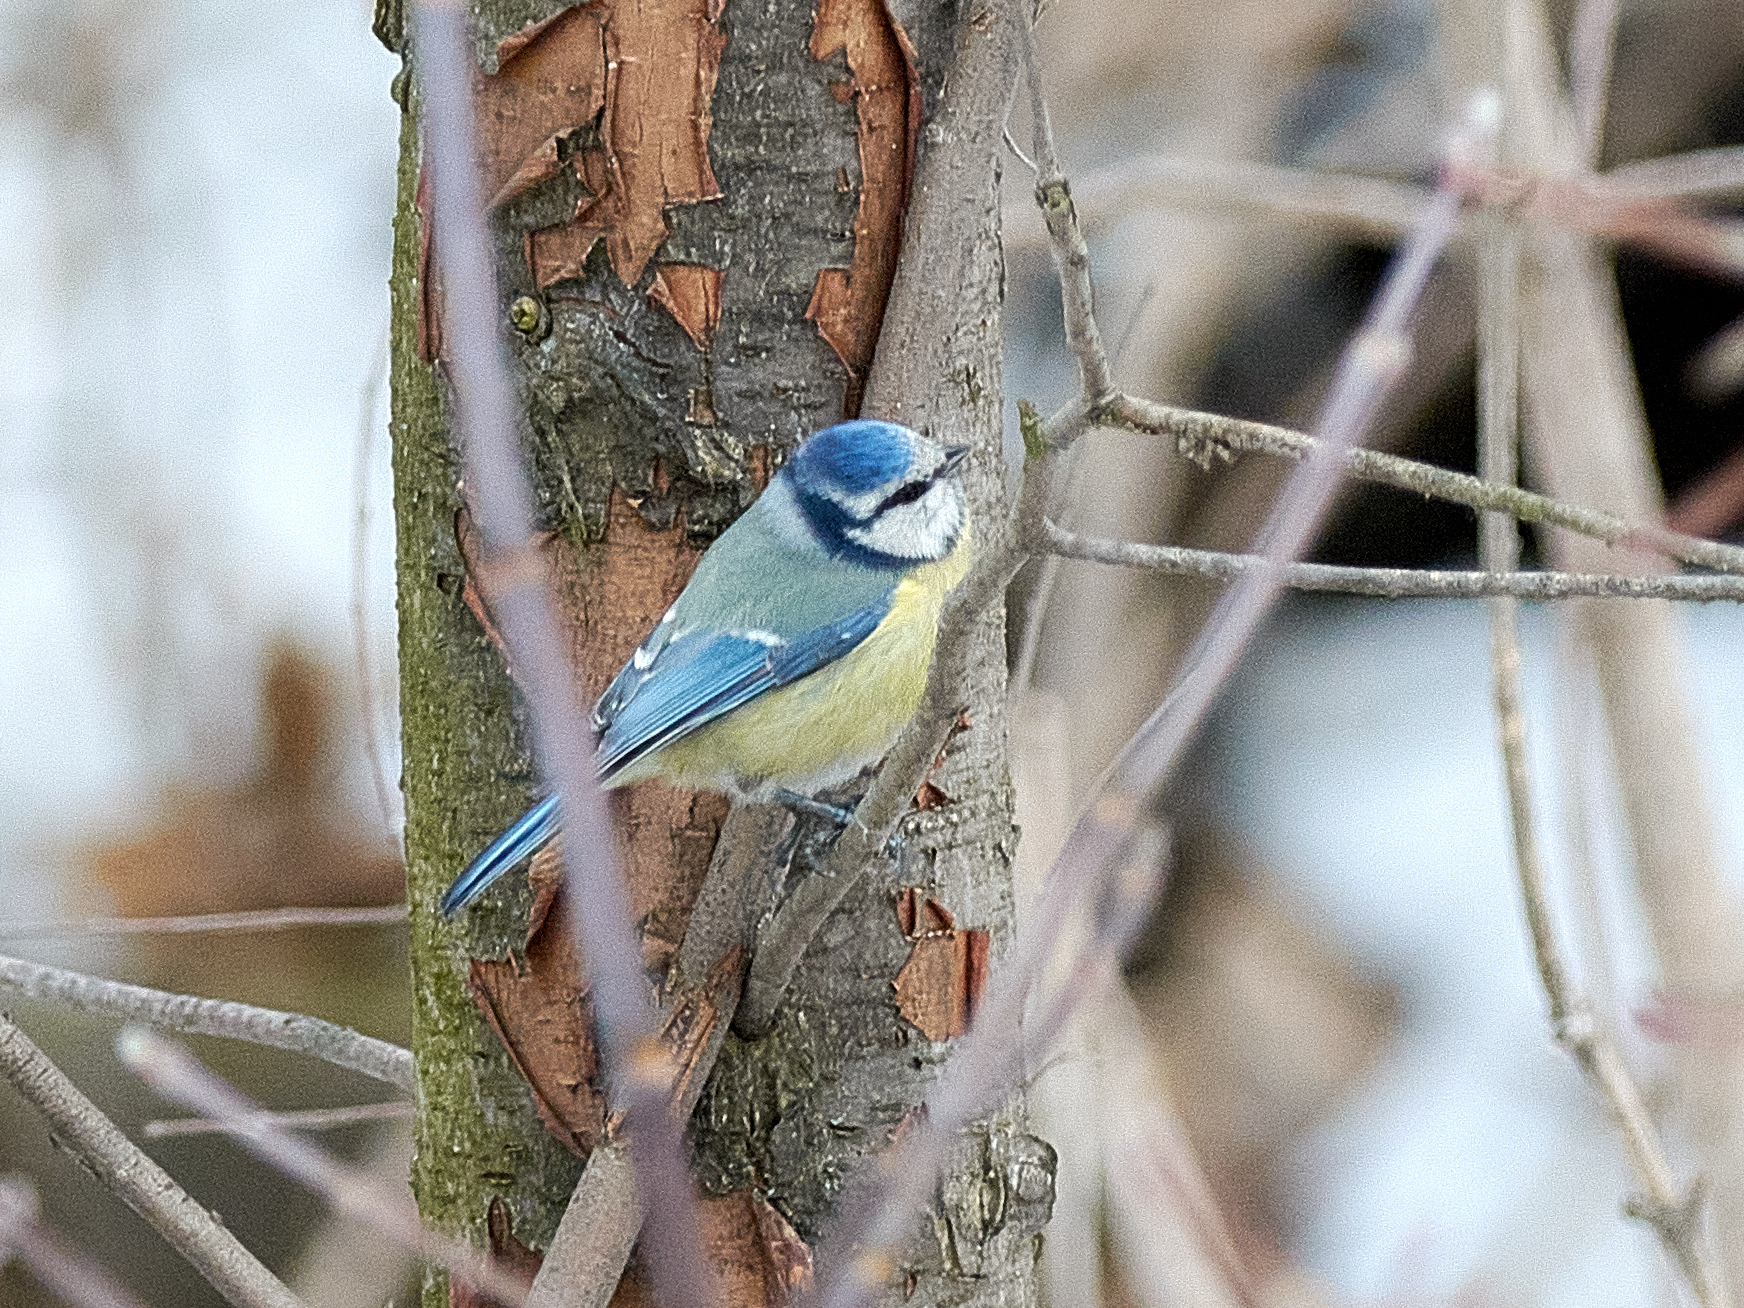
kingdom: Animalia
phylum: Chordata
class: Aves
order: Passeriformes
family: Paridae
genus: Cyanistes
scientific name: Cyanistes caeruleus
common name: Eurasian blue tit
